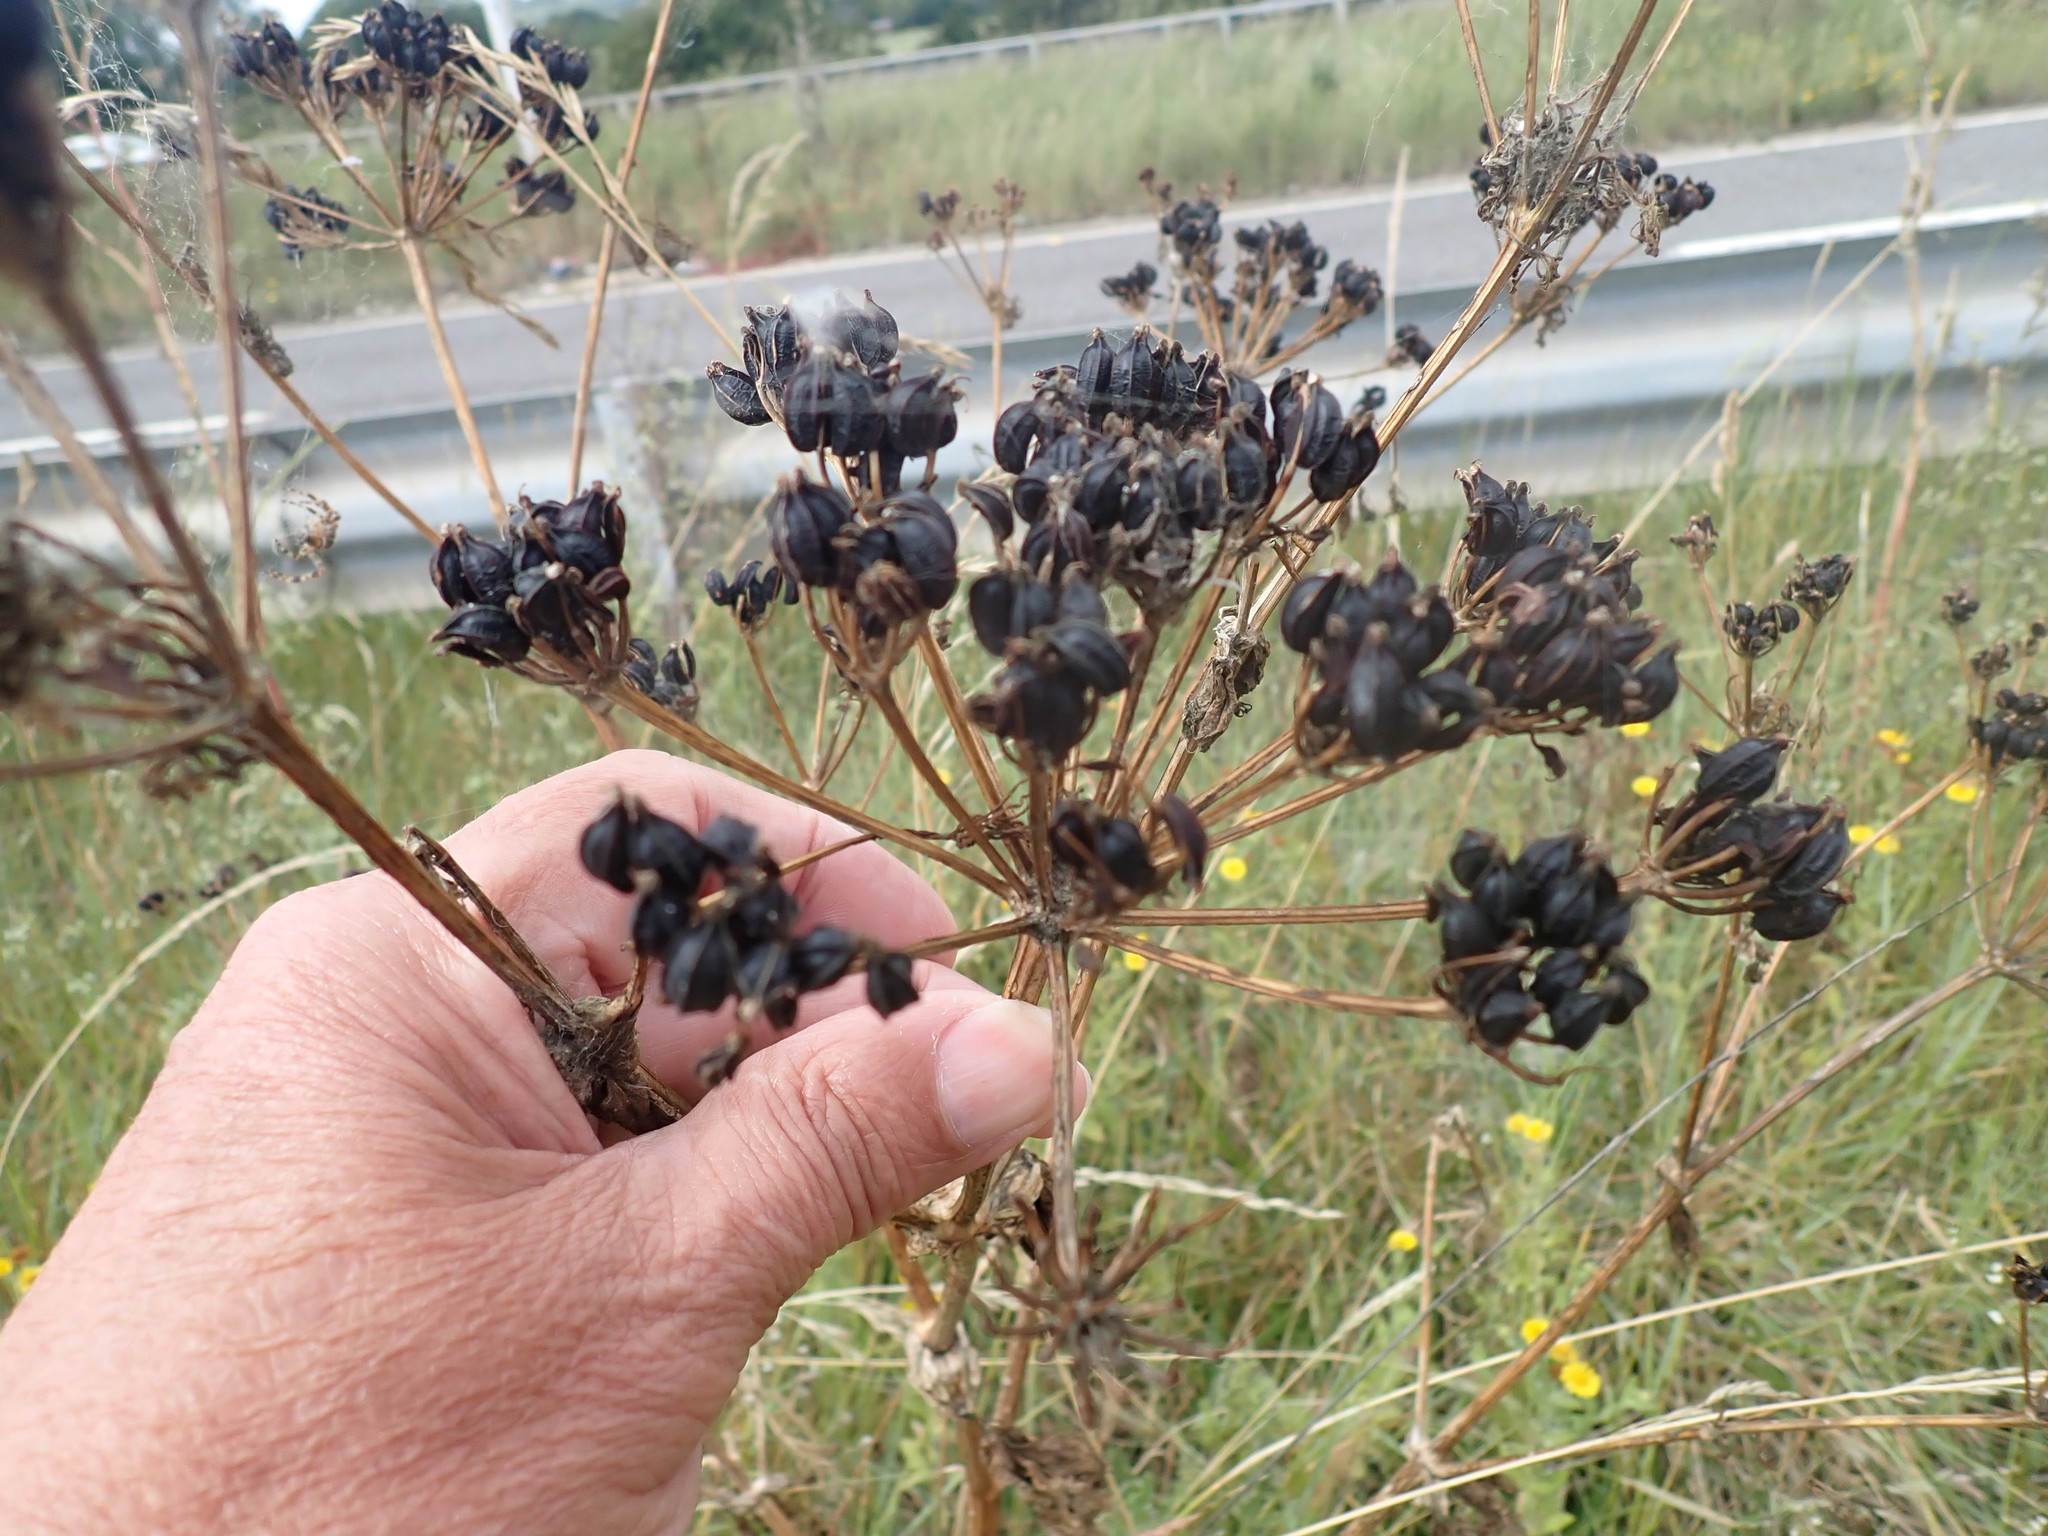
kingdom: Plantae
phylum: Tracheophyta
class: Magnoliopsida
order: Apiales
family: Apiaceae
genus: Smyrnium
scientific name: Smyrnium olusatrum
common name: Alexanders
